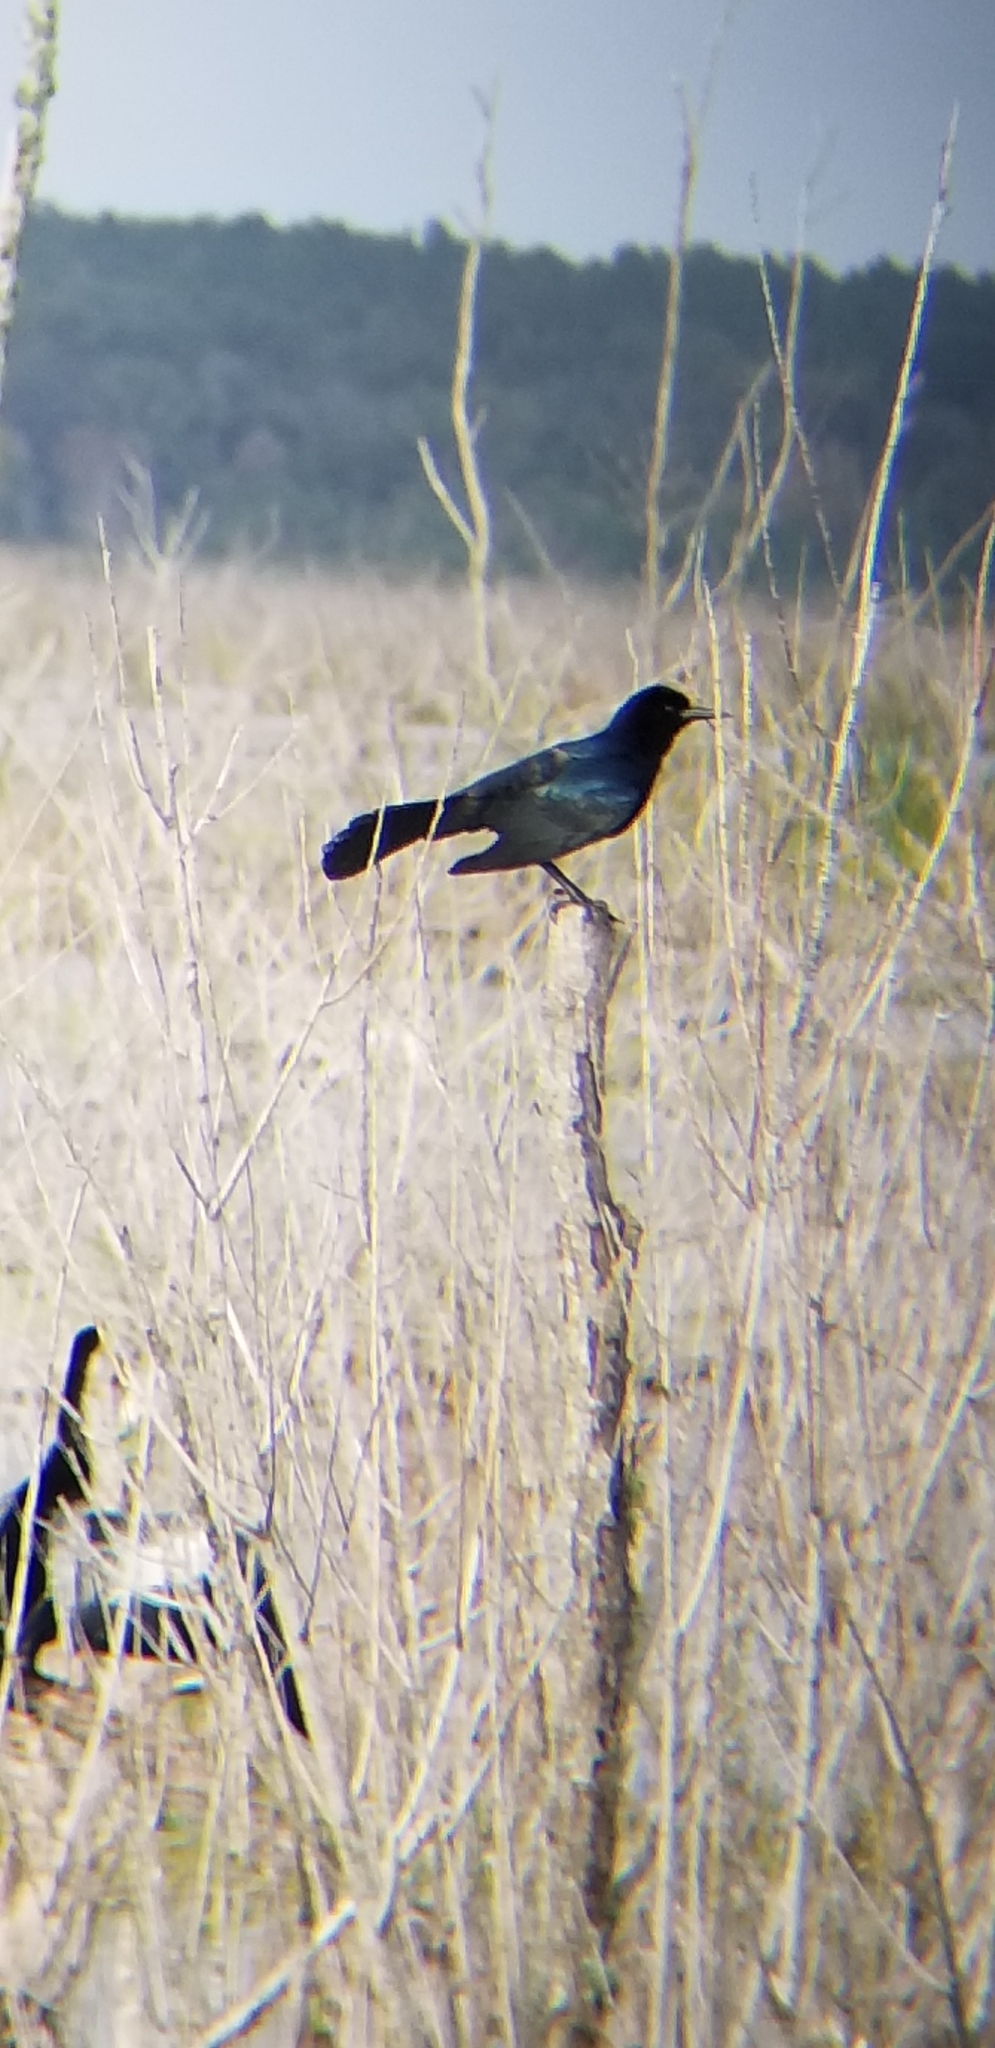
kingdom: Animalia
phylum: Chordata
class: Aves
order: Passeriformes
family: Icteridae
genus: Quiscalus
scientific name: Quiscalus major
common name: Boat-tailed grackle
